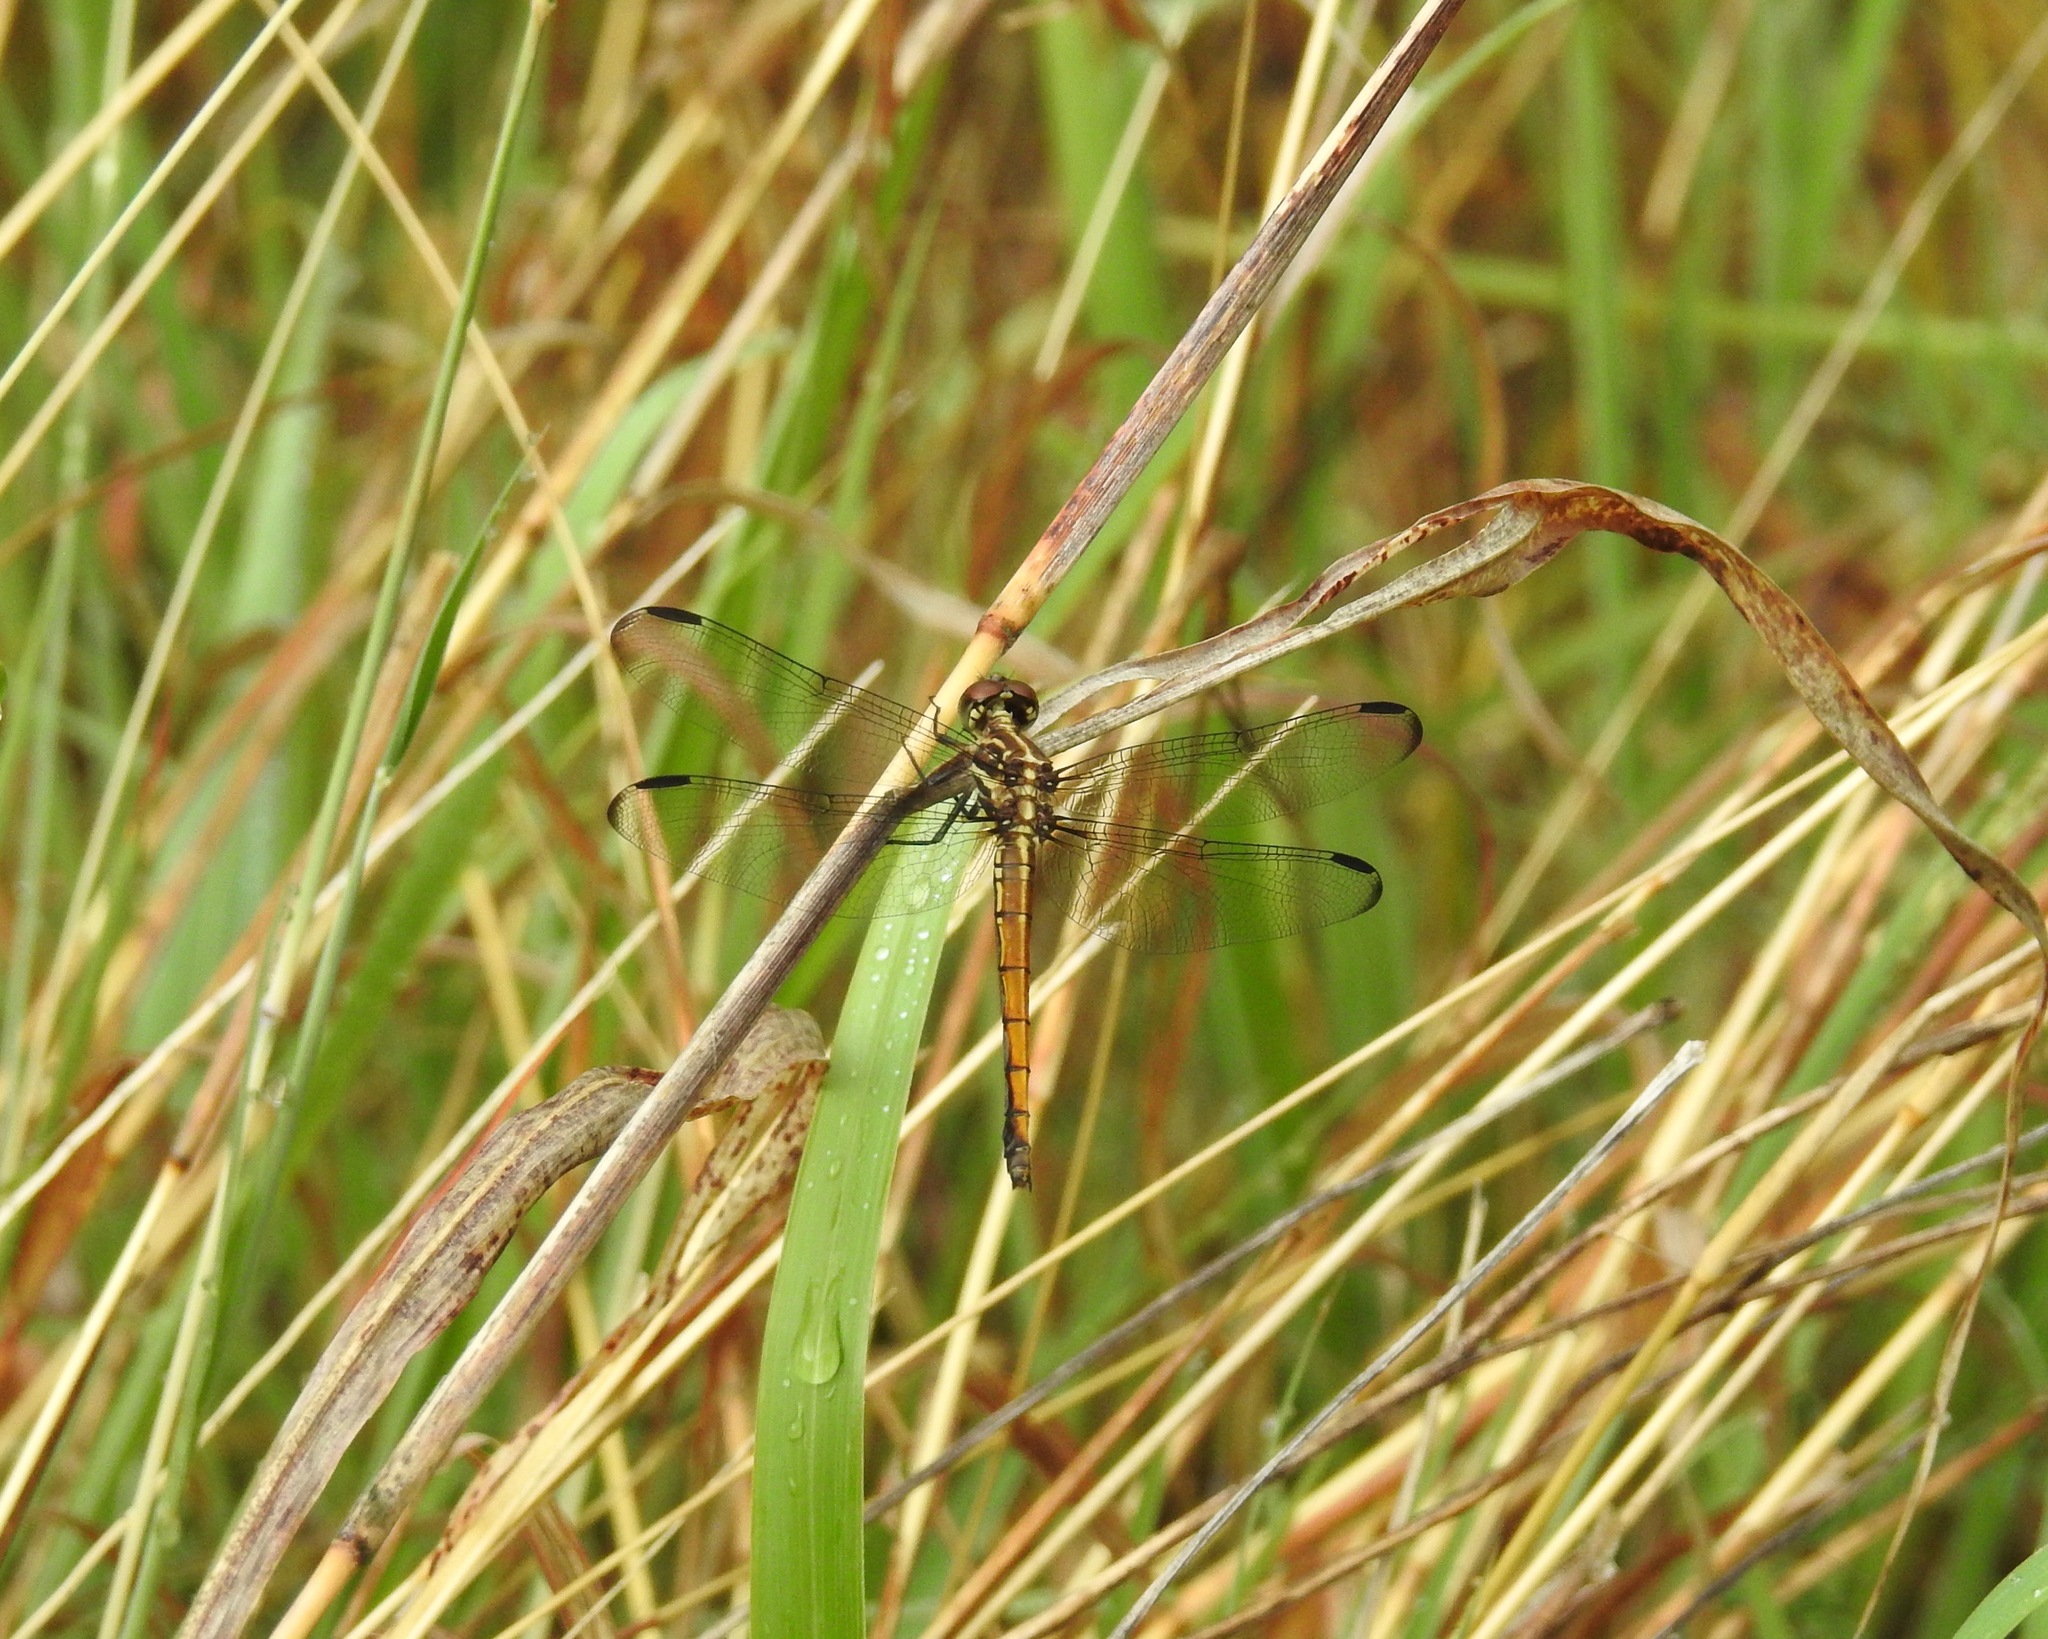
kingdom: Animalia
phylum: Arthropoda
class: Insecta
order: Odonata
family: Libellulidae
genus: Cannaphila
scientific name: Cannaphila insularis
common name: Gray-waisted skimmer
